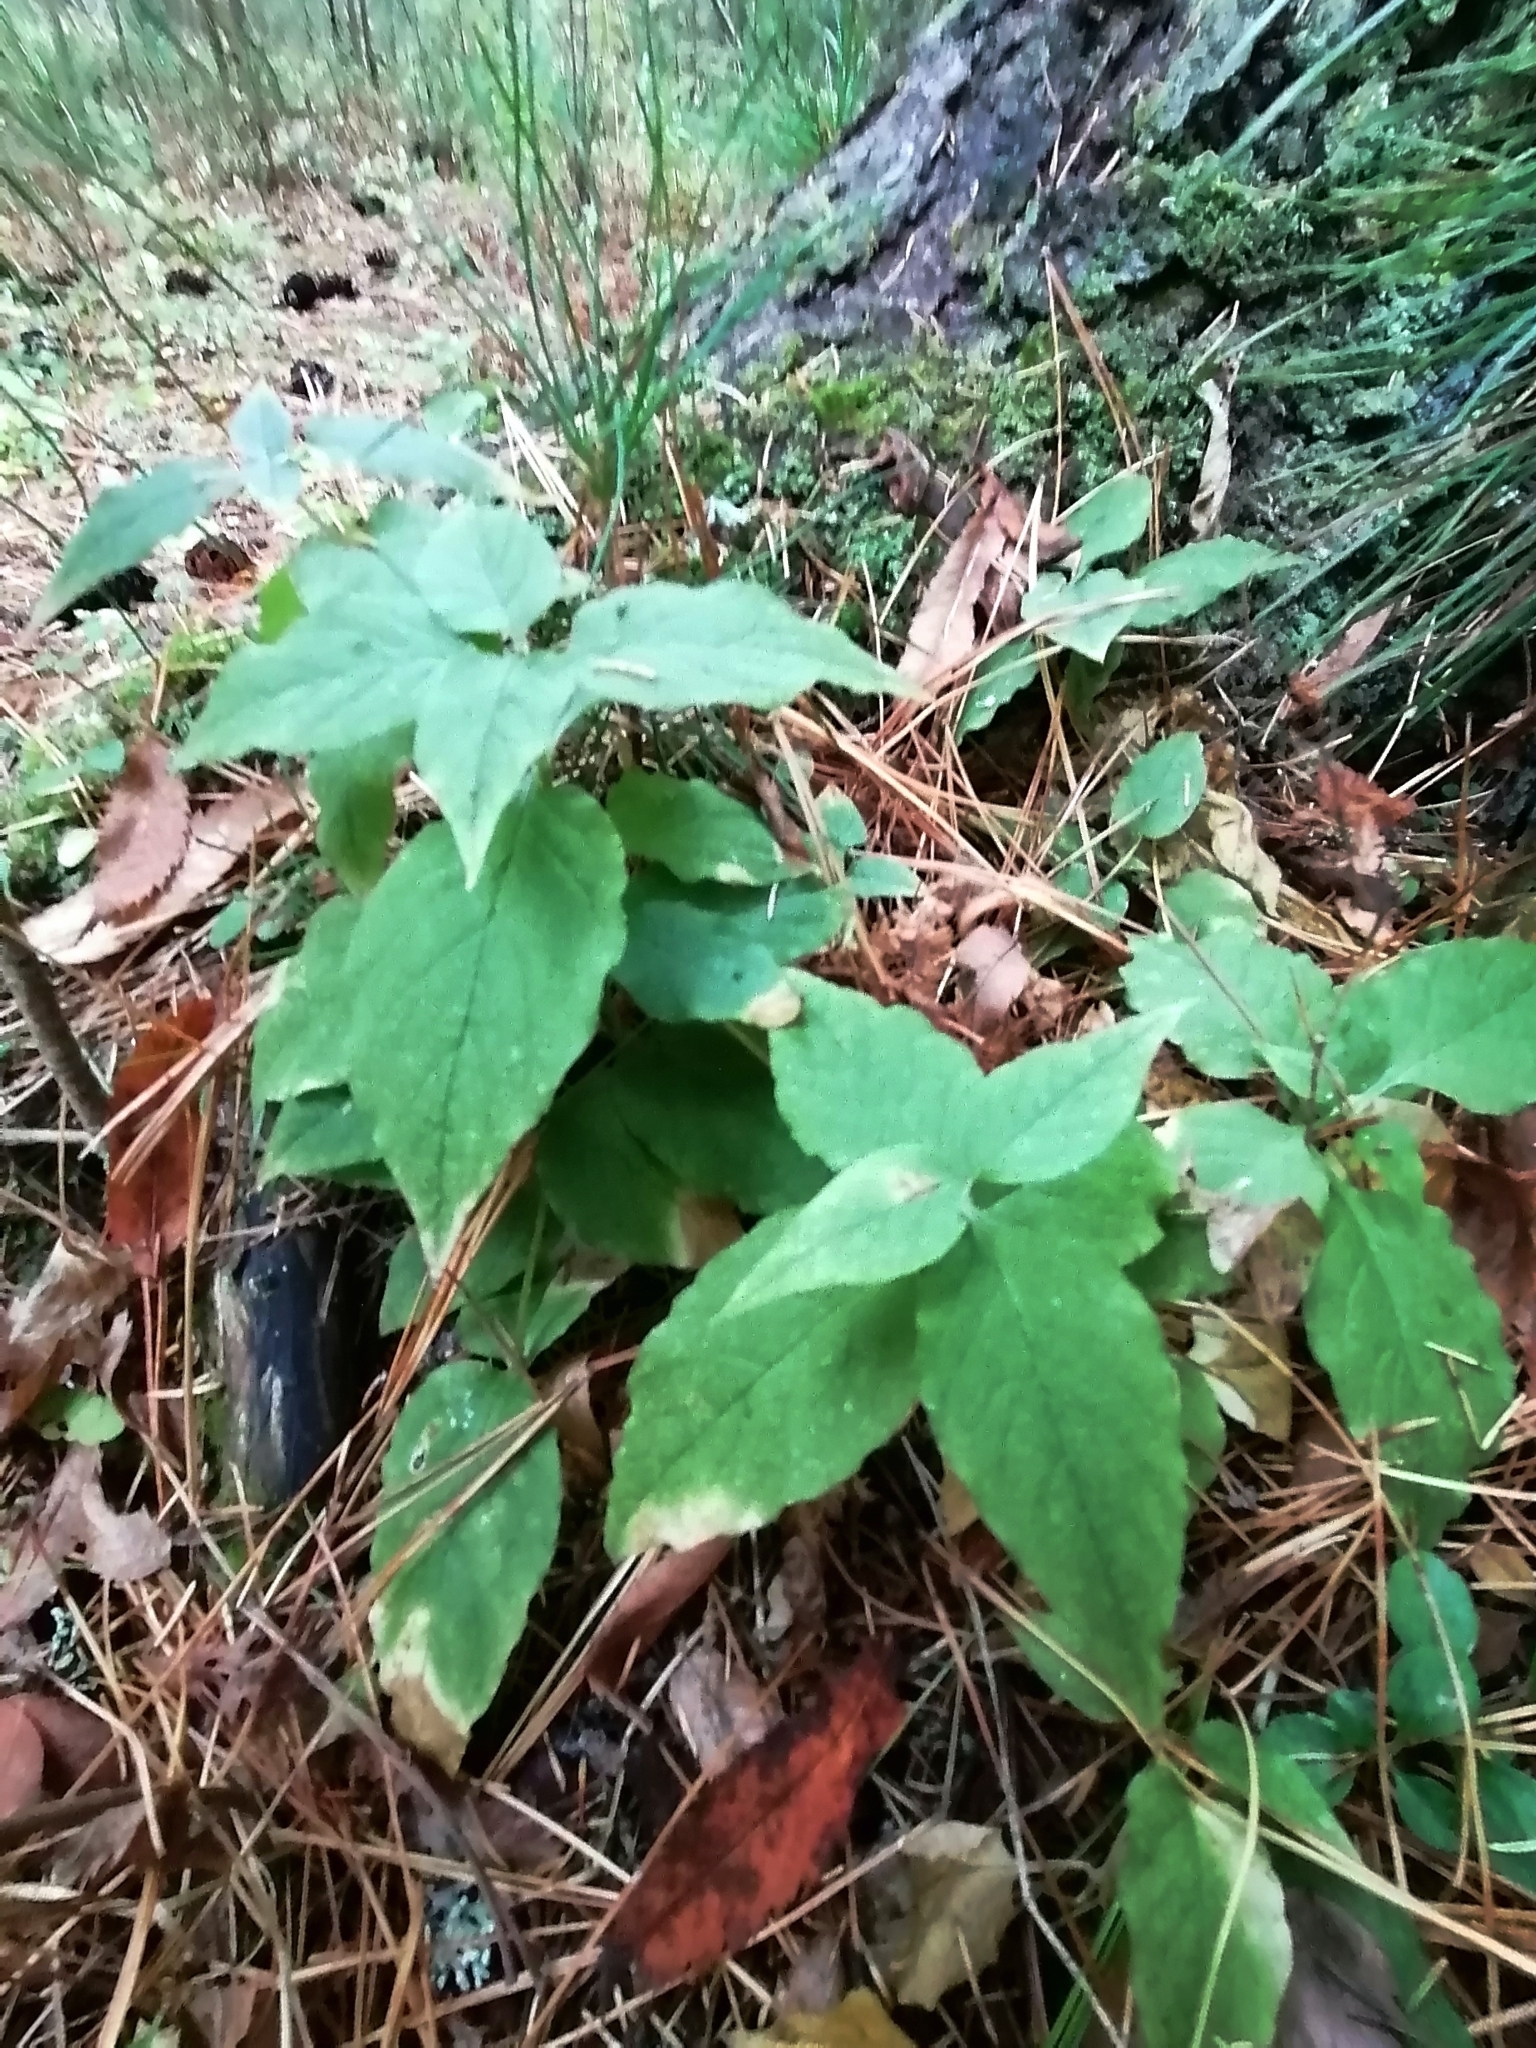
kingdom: Plantae
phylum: Tracheophyta
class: Magnoliopsida
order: Caryophyllales
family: Caryophyllaceae
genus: Stellaria
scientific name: Stellaria bungeana
